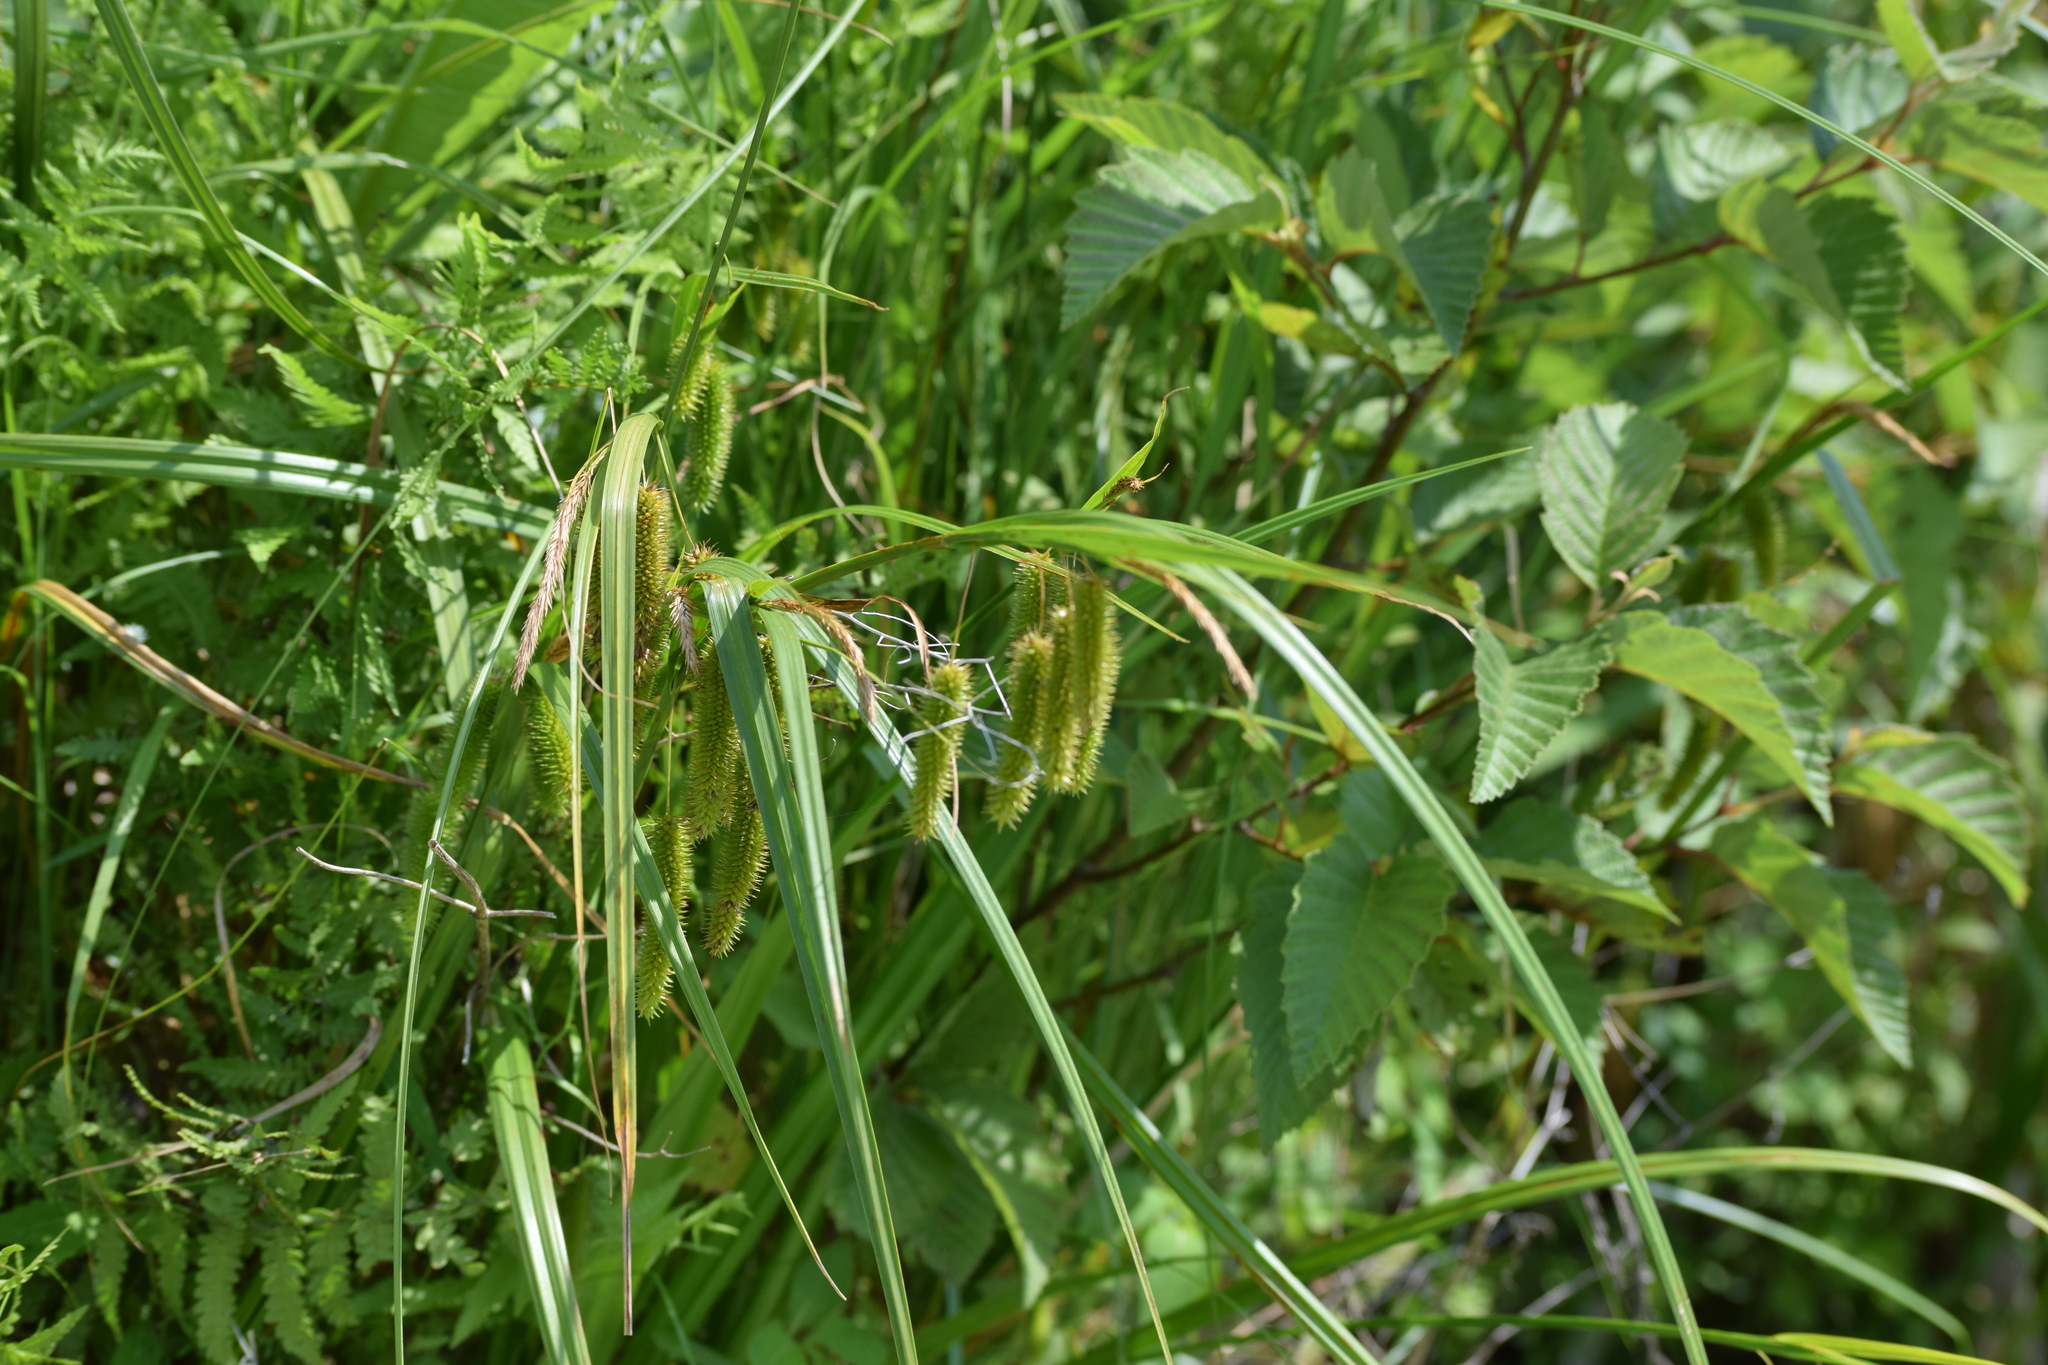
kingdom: Plantae
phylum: Tracheophyta
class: Liliopsida
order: Poales
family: Cyperaceae
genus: Carex
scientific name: Carex pseudocyperus
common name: Cyperus sedge
